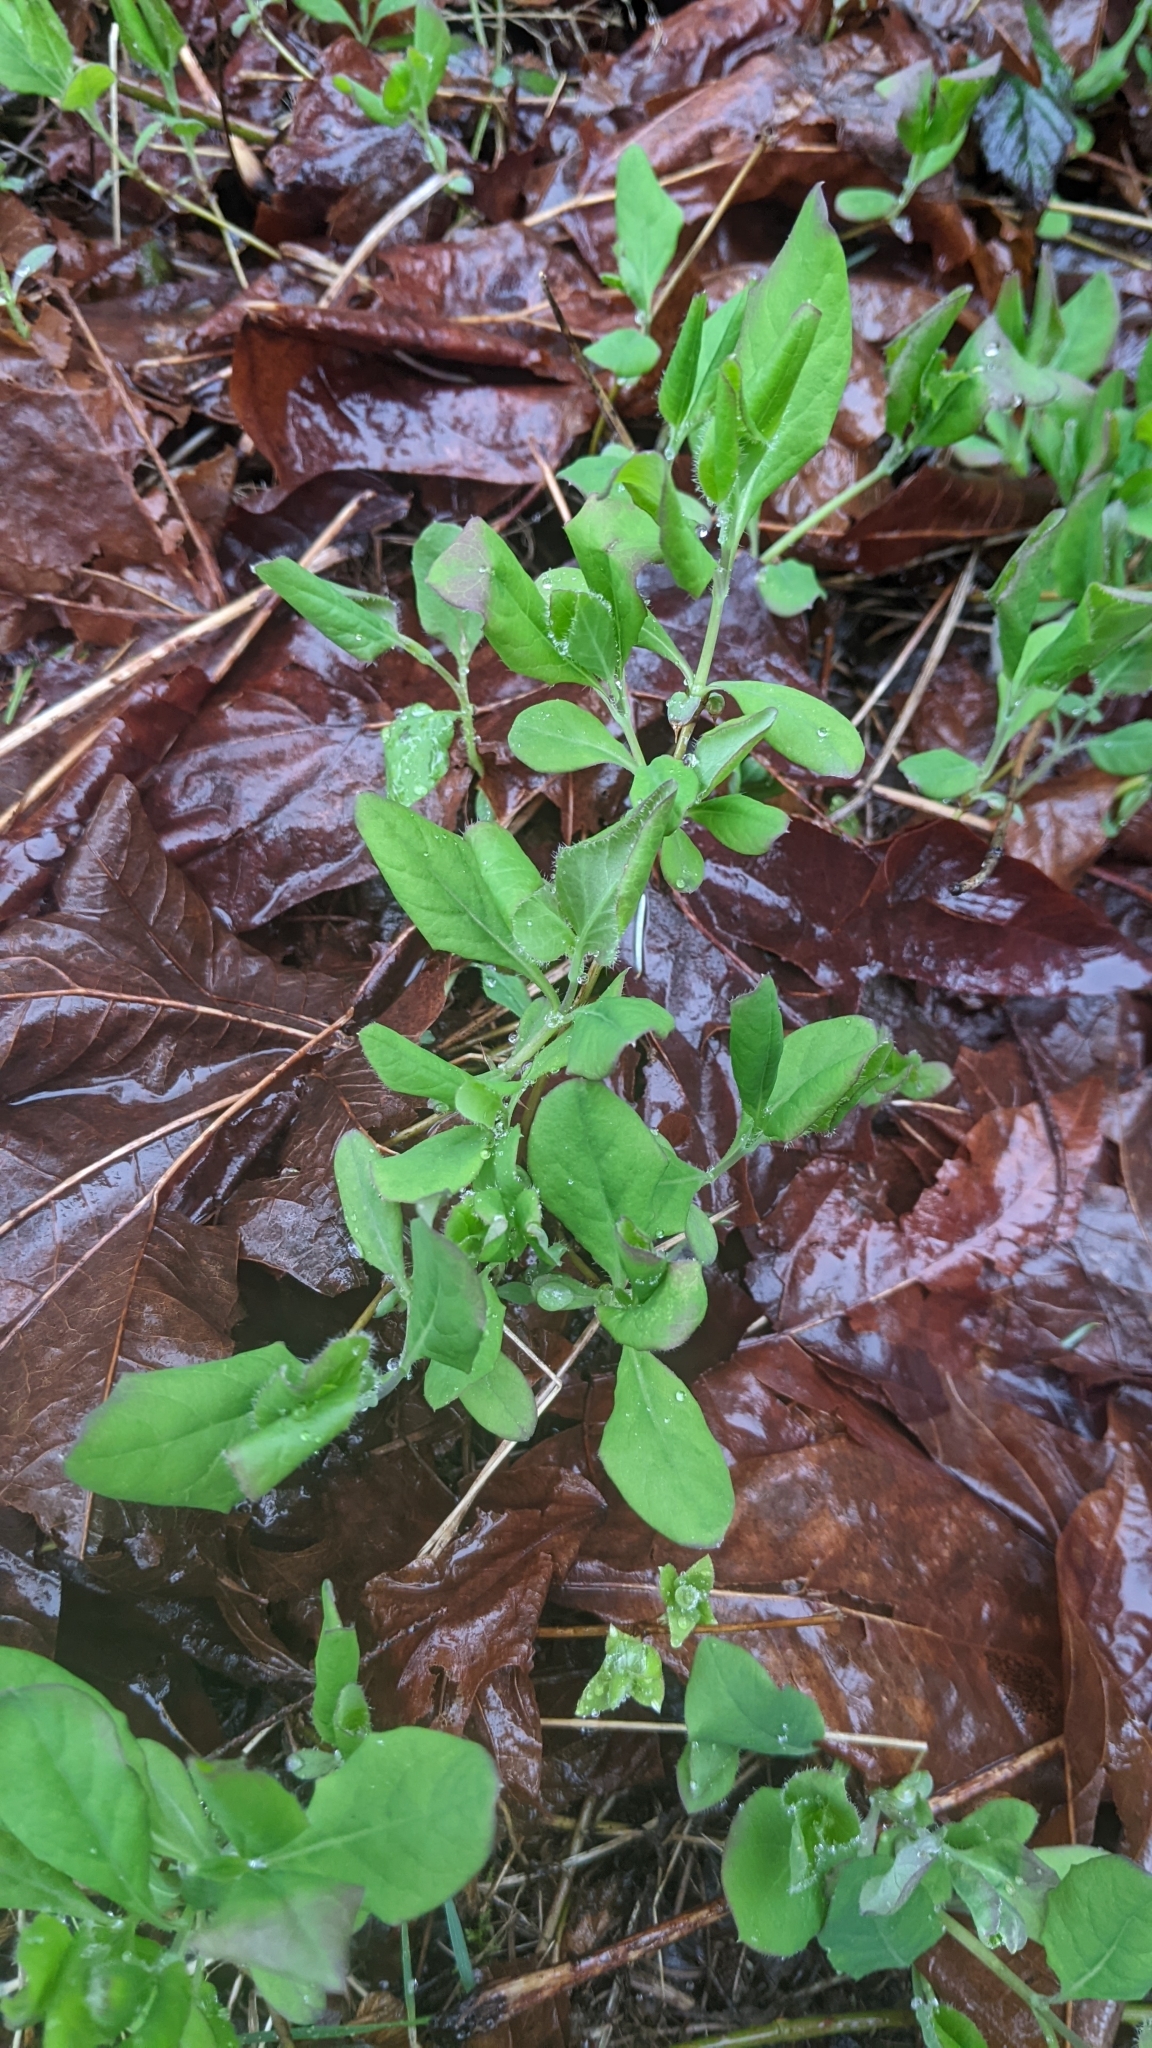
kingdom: Plantae
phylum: Tracheophyta
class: Magnoliopsida
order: Dipsacales
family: Caprifoliaceae
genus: Lonicera
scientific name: Lonicera ciliosa
